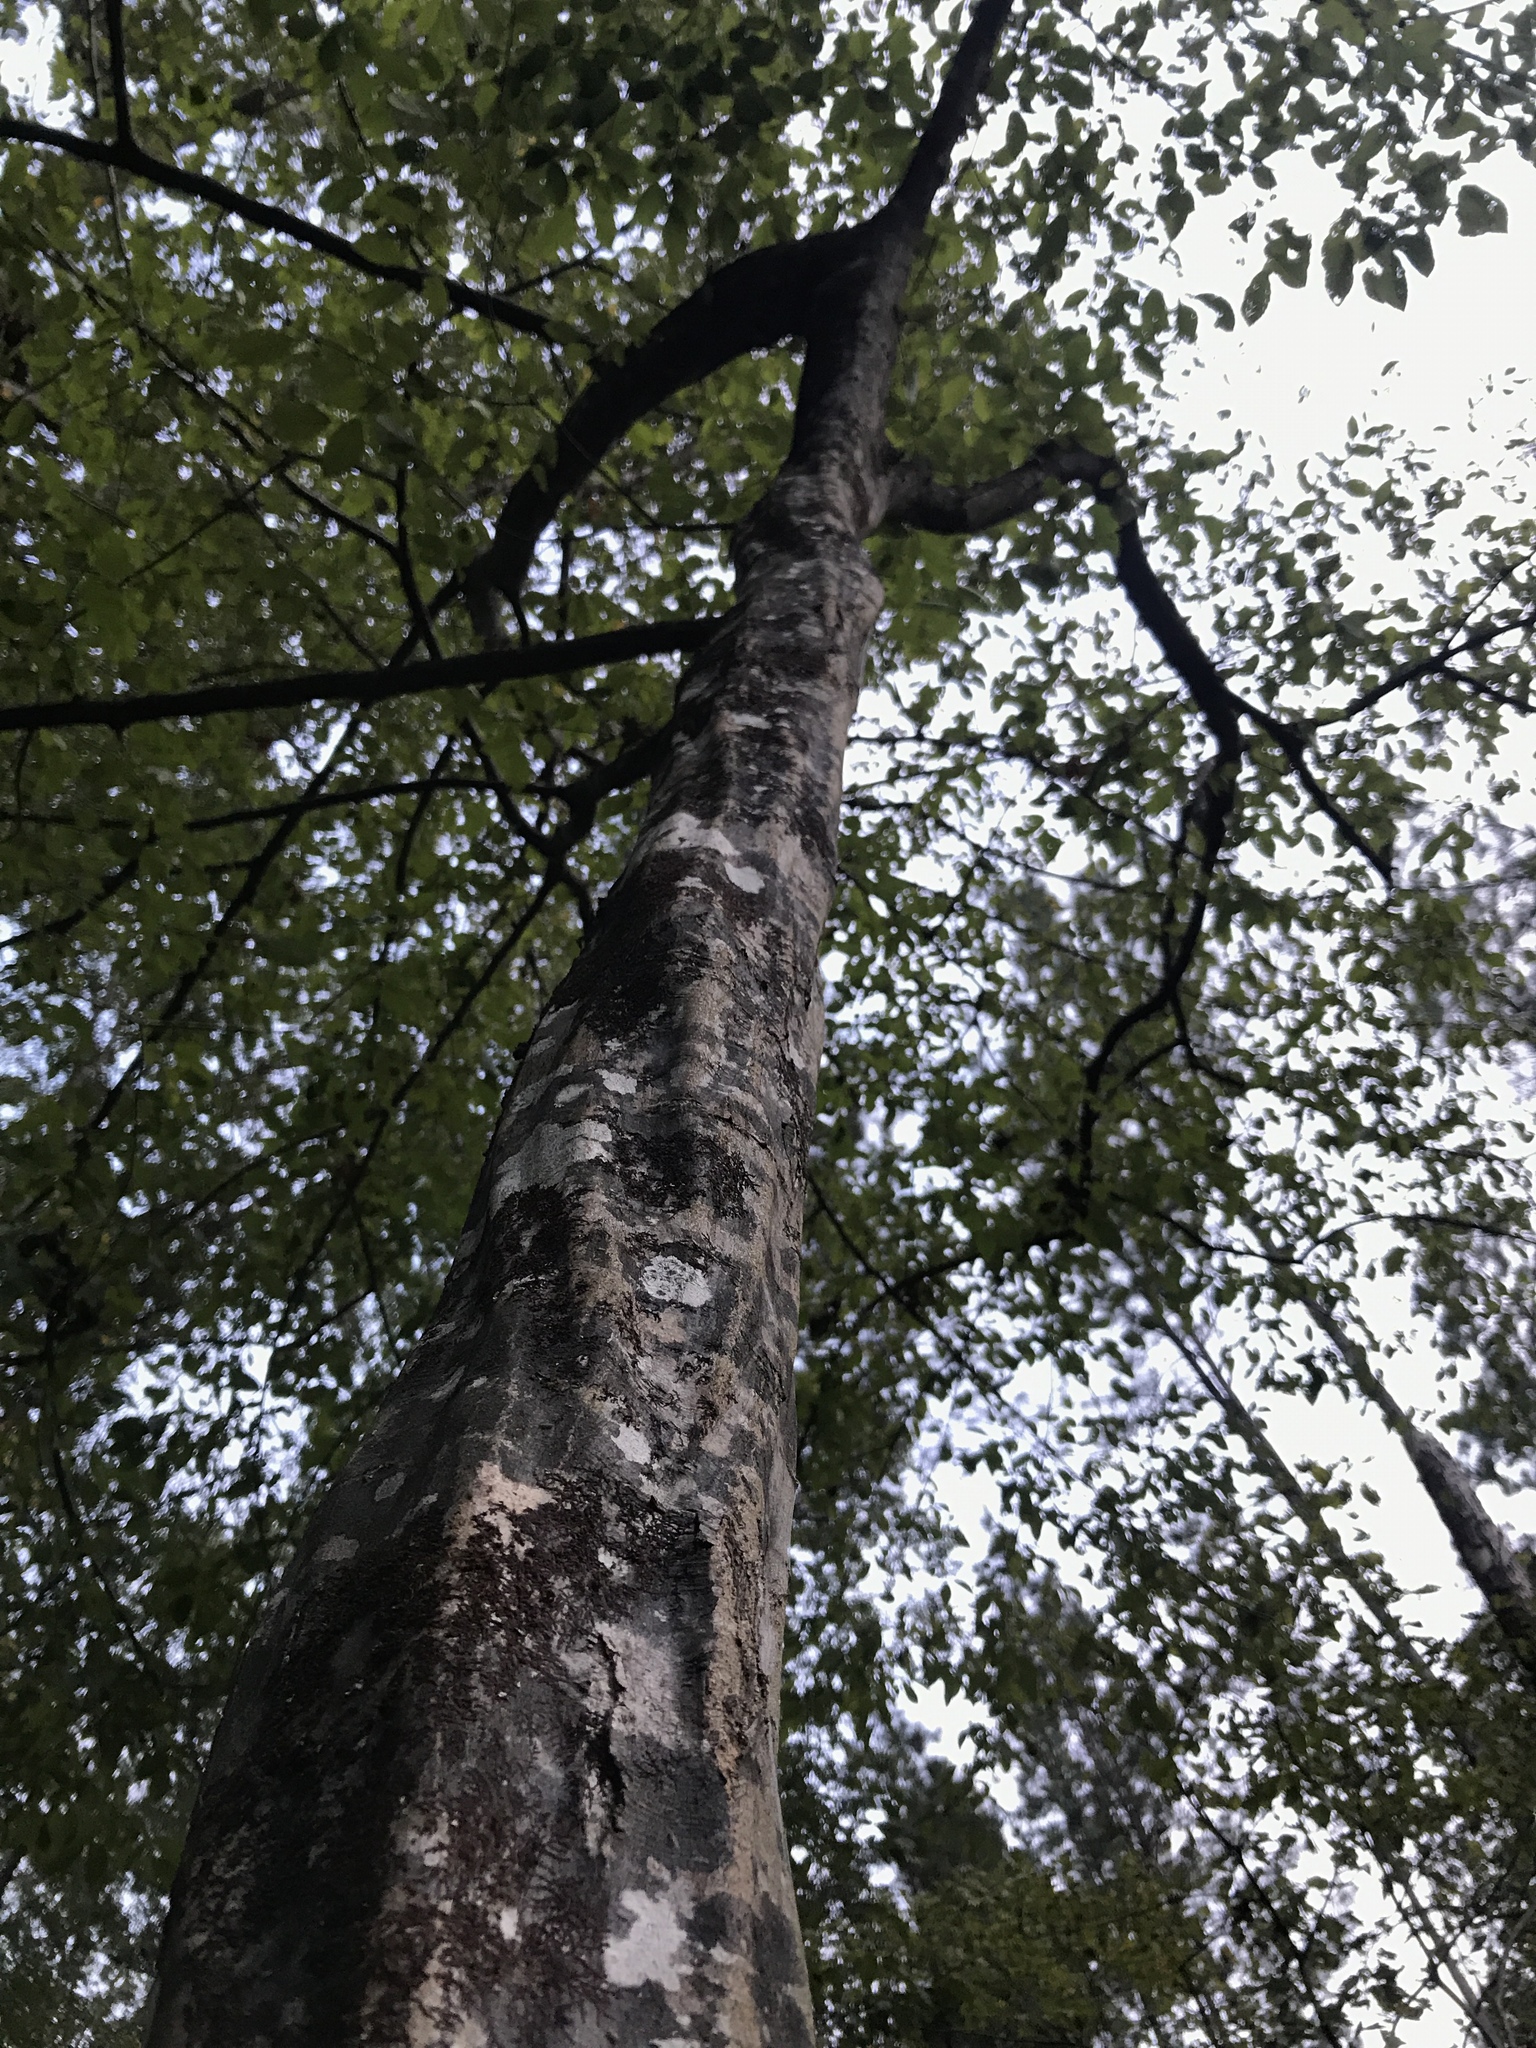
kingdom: Plantae
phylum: Tracheophyta
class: Magnoliopsida
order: Fagales
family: Betulaceae
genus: Carpinus
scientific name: Carpinus caroliniana
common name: American hornbeam
